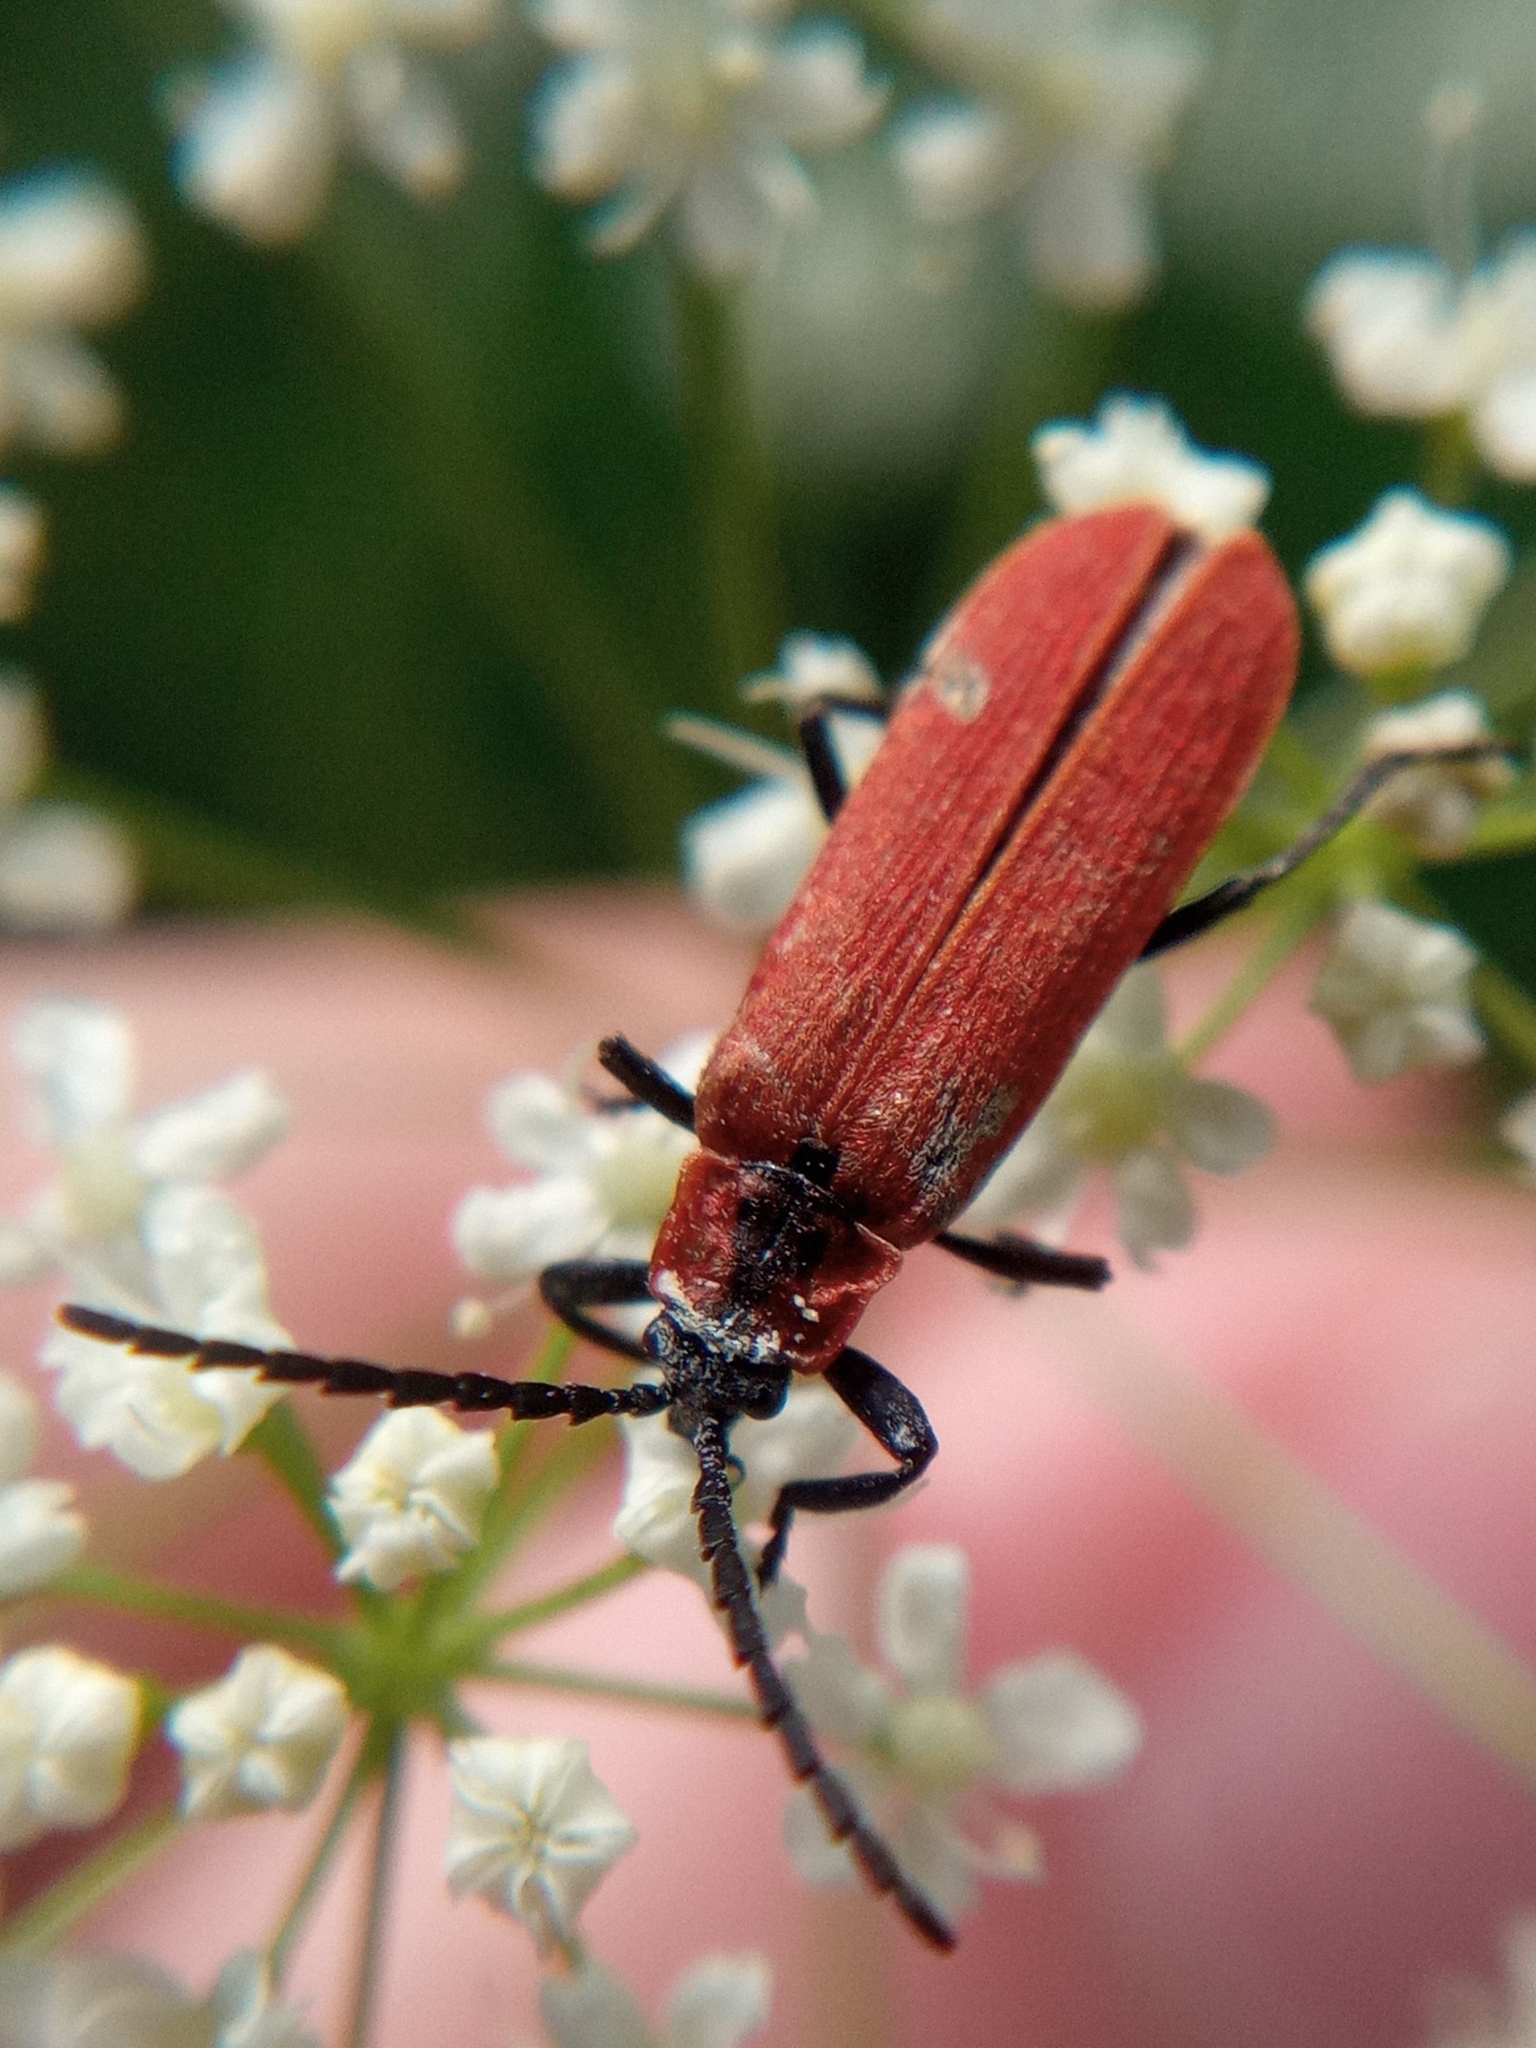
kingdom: Animalia
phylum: Arthropoda
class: Insecta
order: Coleoptera
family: Lycidae
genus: Lygistopterus
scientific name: Lygistopterus sanguineus
